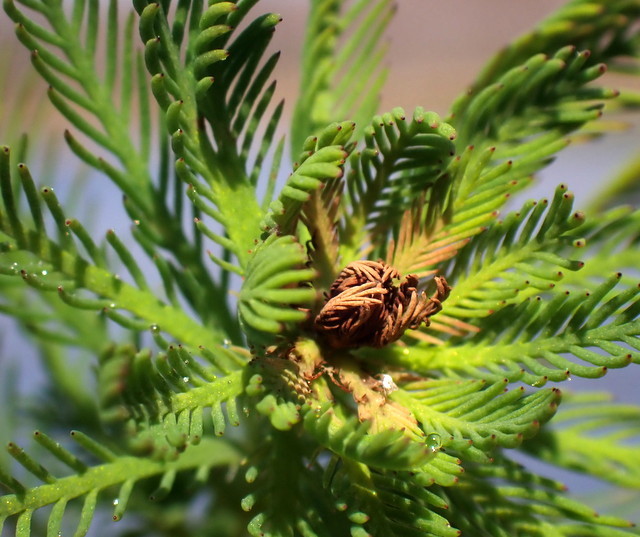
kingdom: Plantae
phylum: Tracheophyta
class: Magnoliopsida
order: Saxifragales
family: Haloragaceae
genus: Myriophyllum
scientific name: Myriophyllum aquaticum
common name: Parrot's feather
